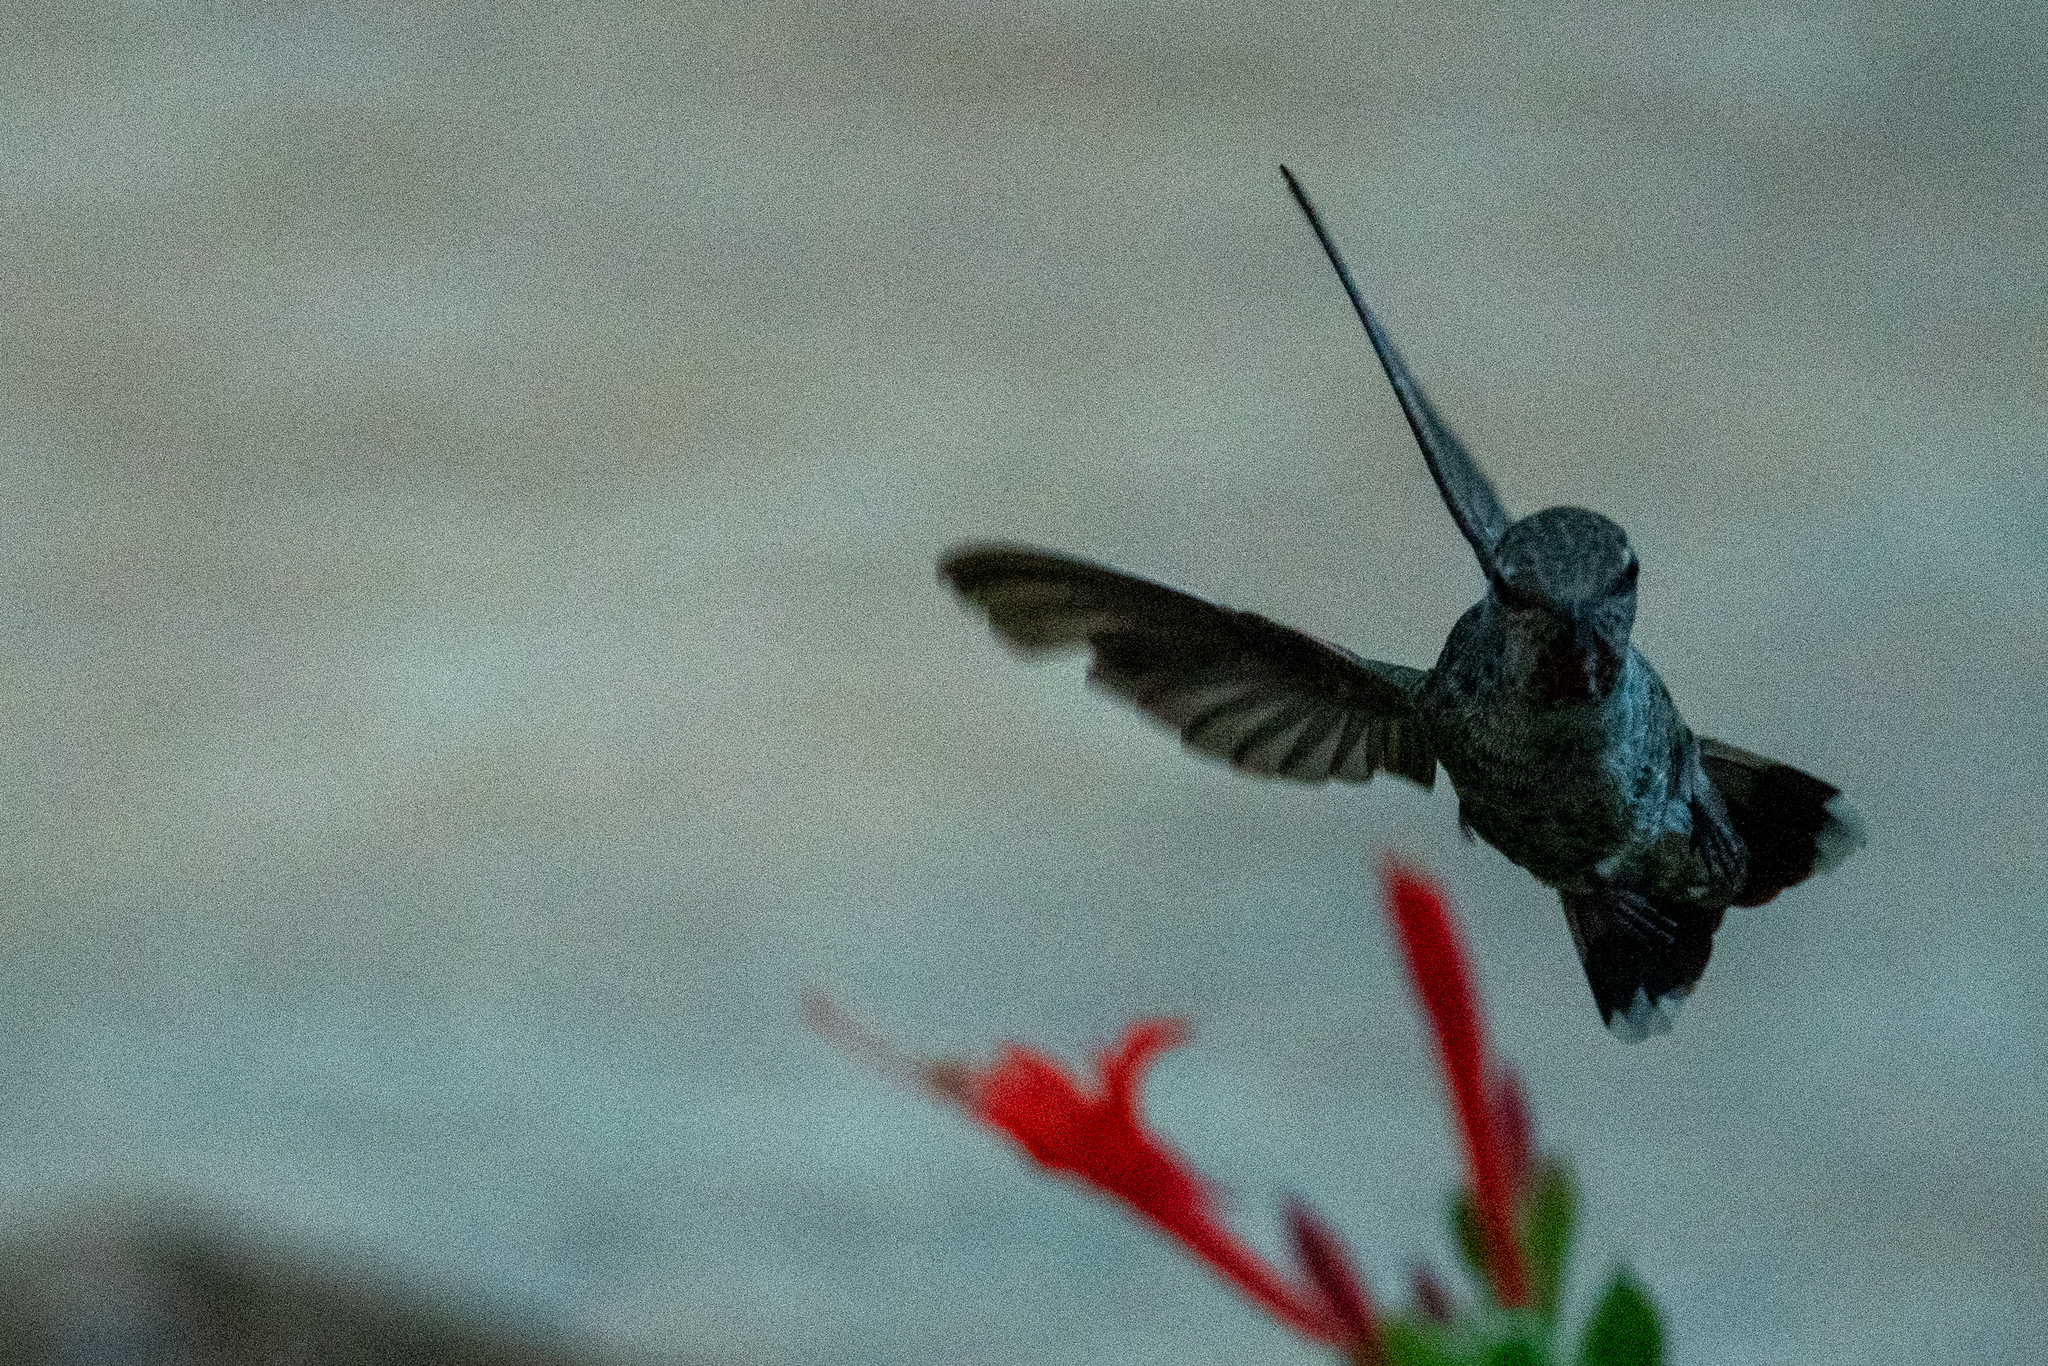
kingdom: Animalia
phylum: Chordata
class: Aves
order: Apodiformes
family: Trochilidae
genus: Calypte
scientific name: Calypte anna
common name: Anna's hummingbird
